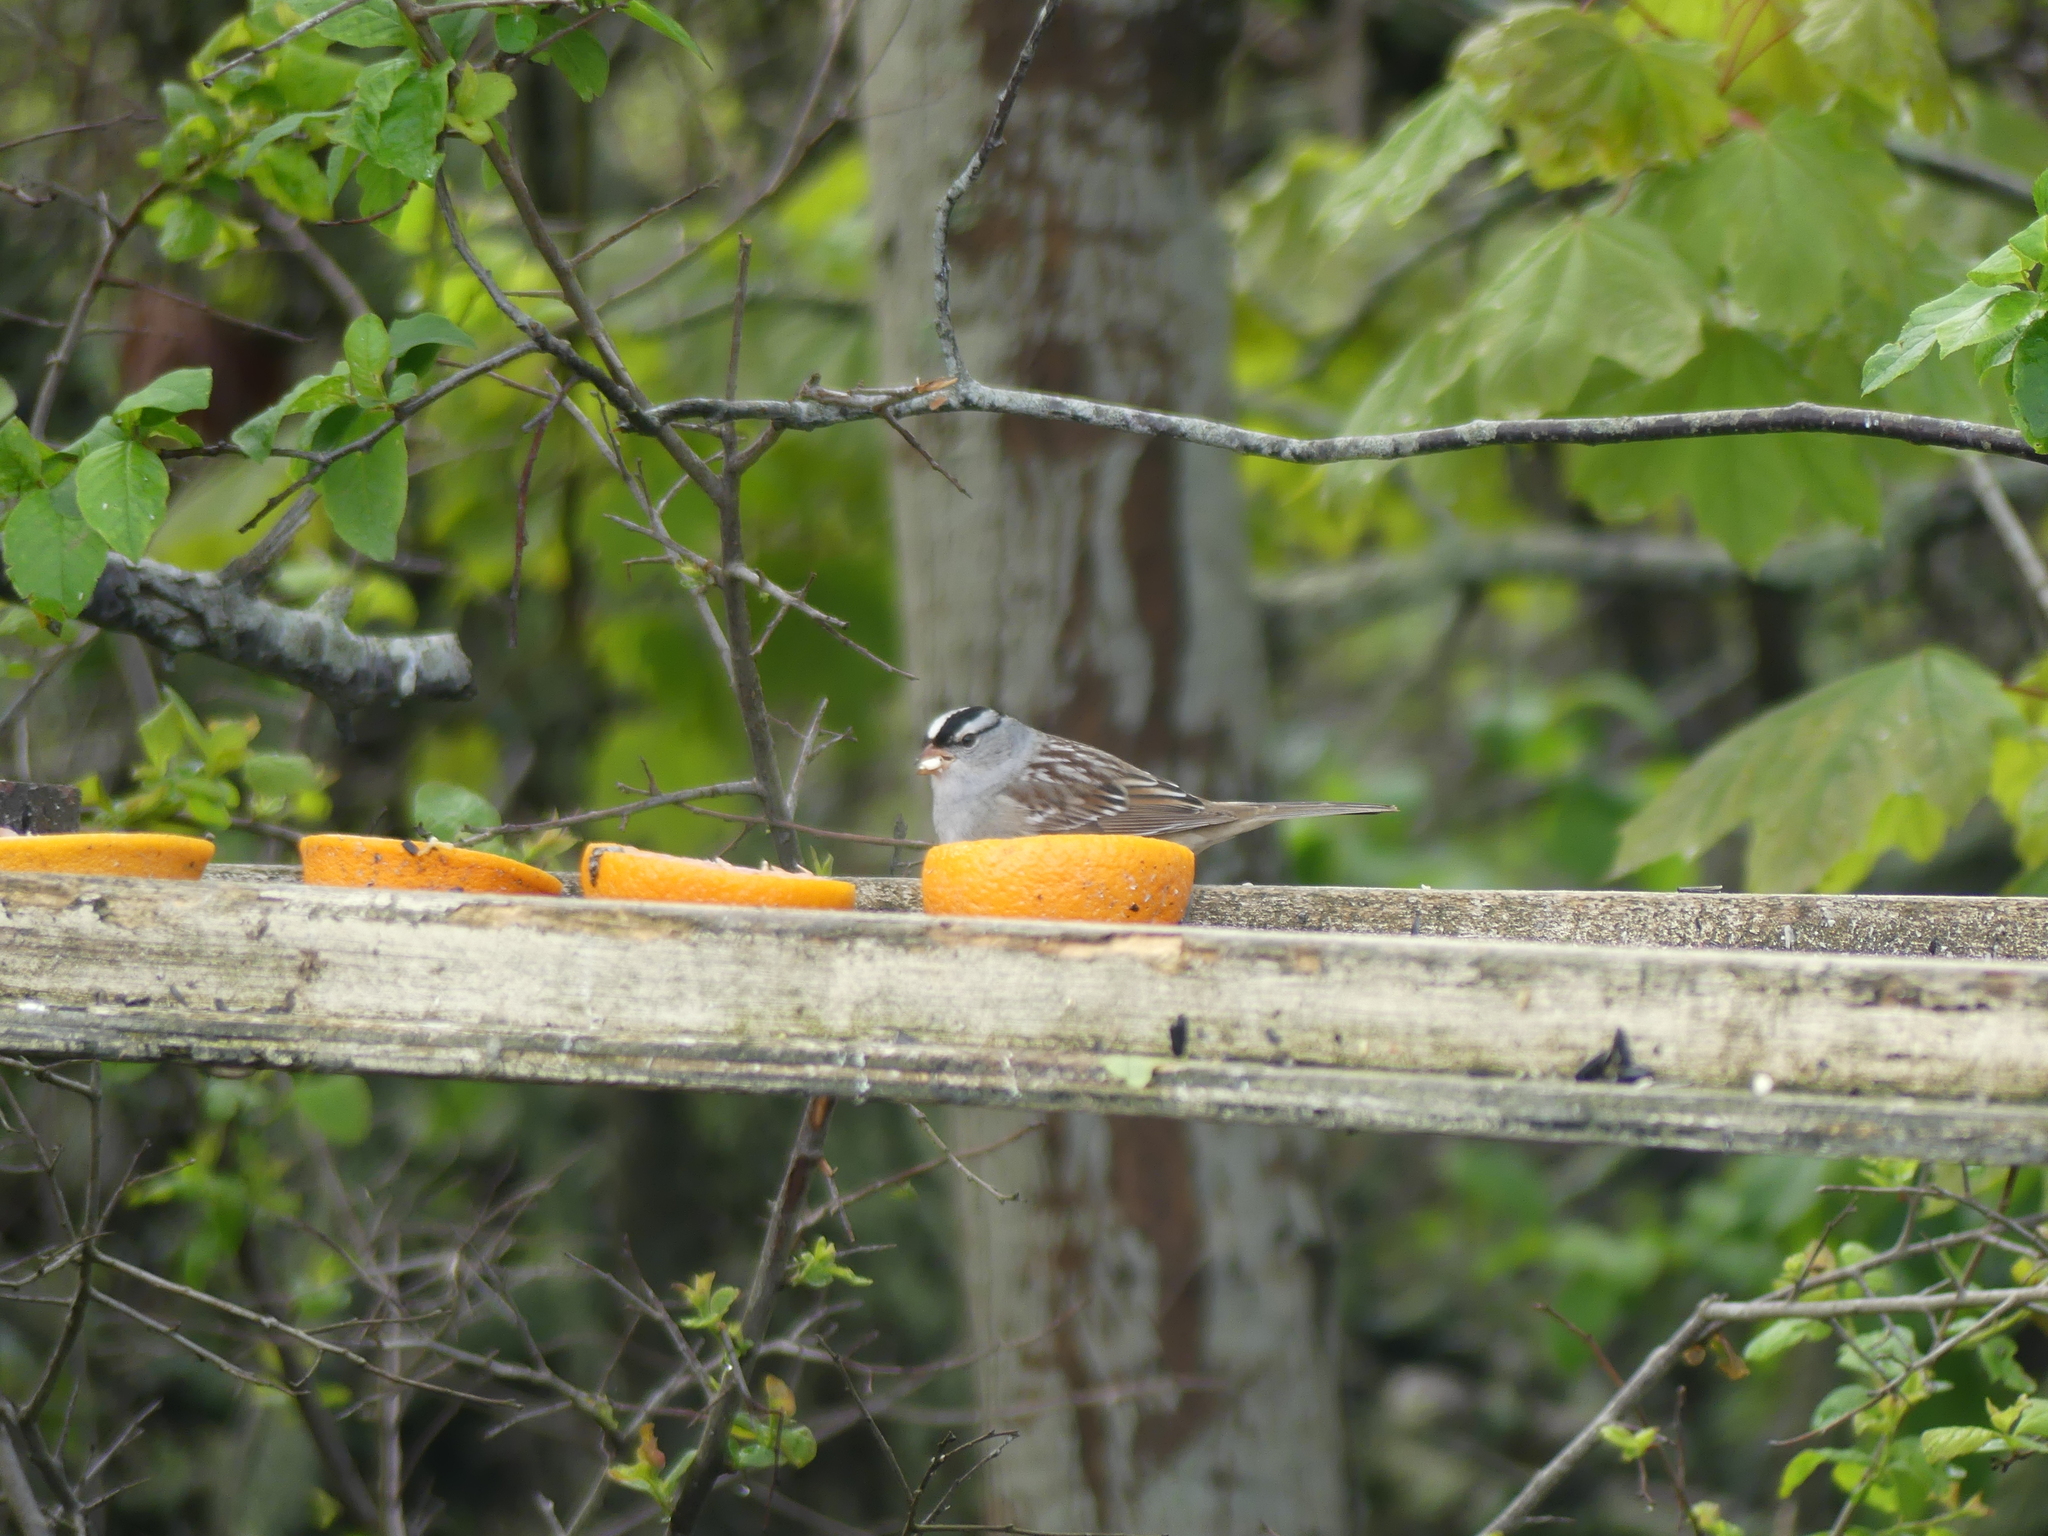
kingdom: Animalia
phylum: Chordata
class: Aves
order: Passeriformes
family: Passerellidae
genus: Zonotrichia
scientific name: Zonotrichia leucophrys
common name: White-crowned sparrow
